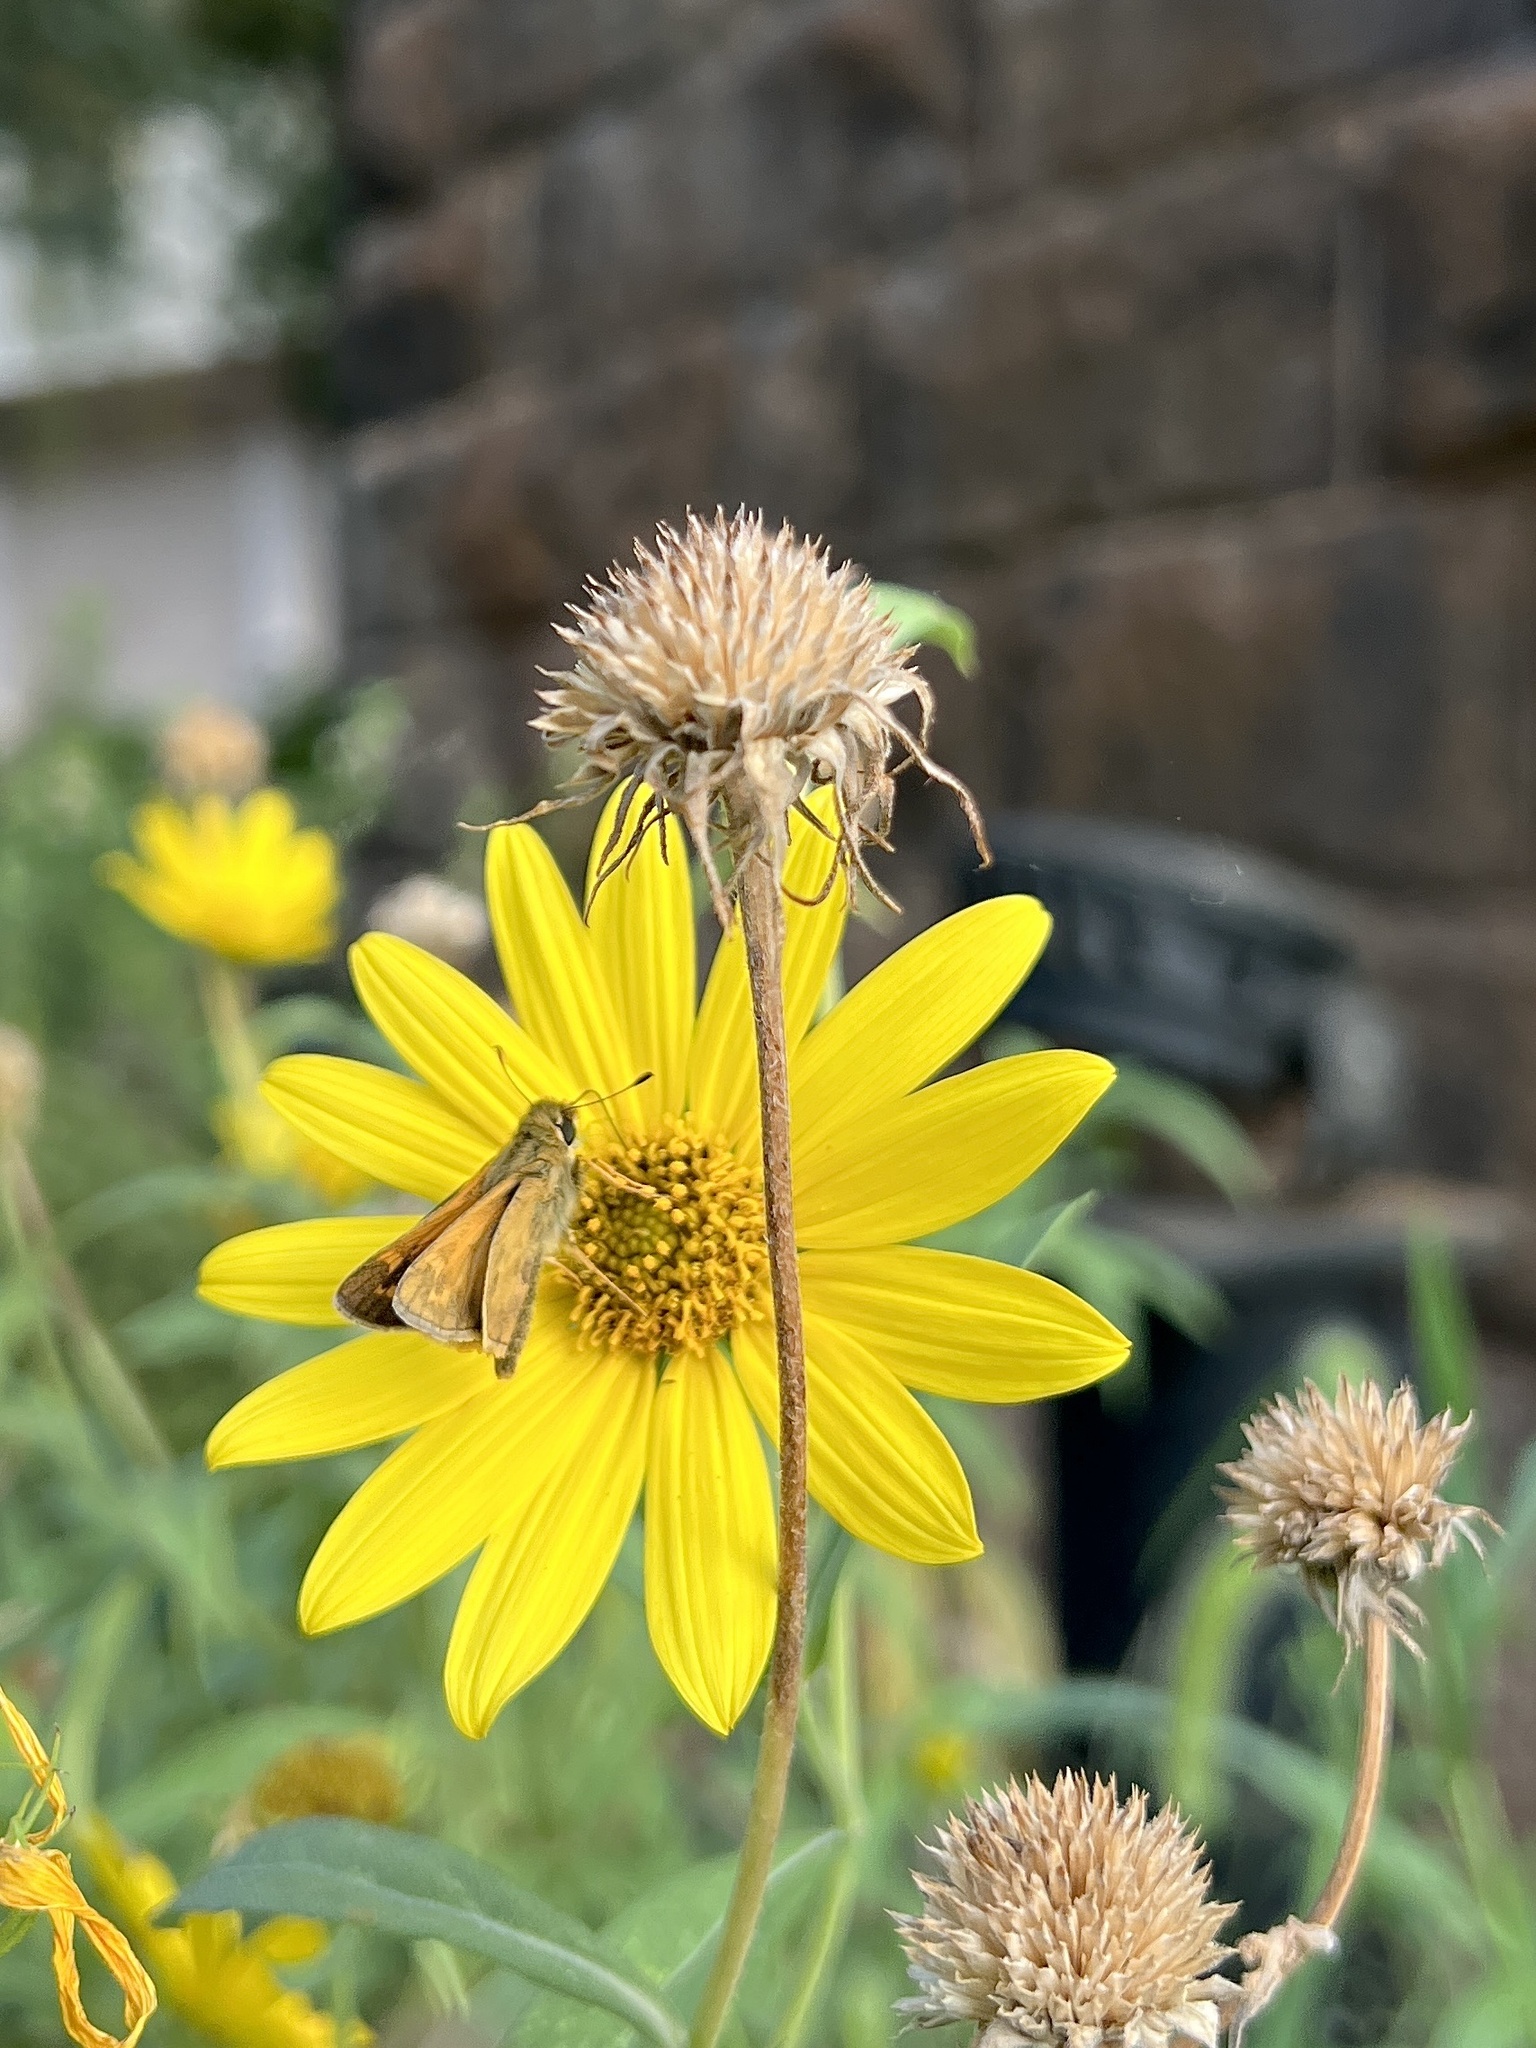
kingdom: Animalia
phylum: Arthropoda
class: Insecta
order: Lepidoptera
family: Hesperiidae
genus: Atalopedes
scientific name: Atalopedes
